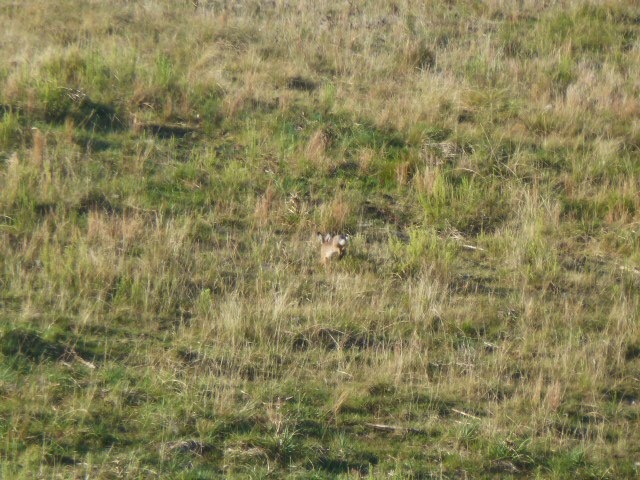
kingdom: Animalia
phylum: Chordata
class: Mammalia
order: Lagomorpha
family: Leporidae
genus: Lepus
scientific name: Lepus europaeus
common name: European hare
